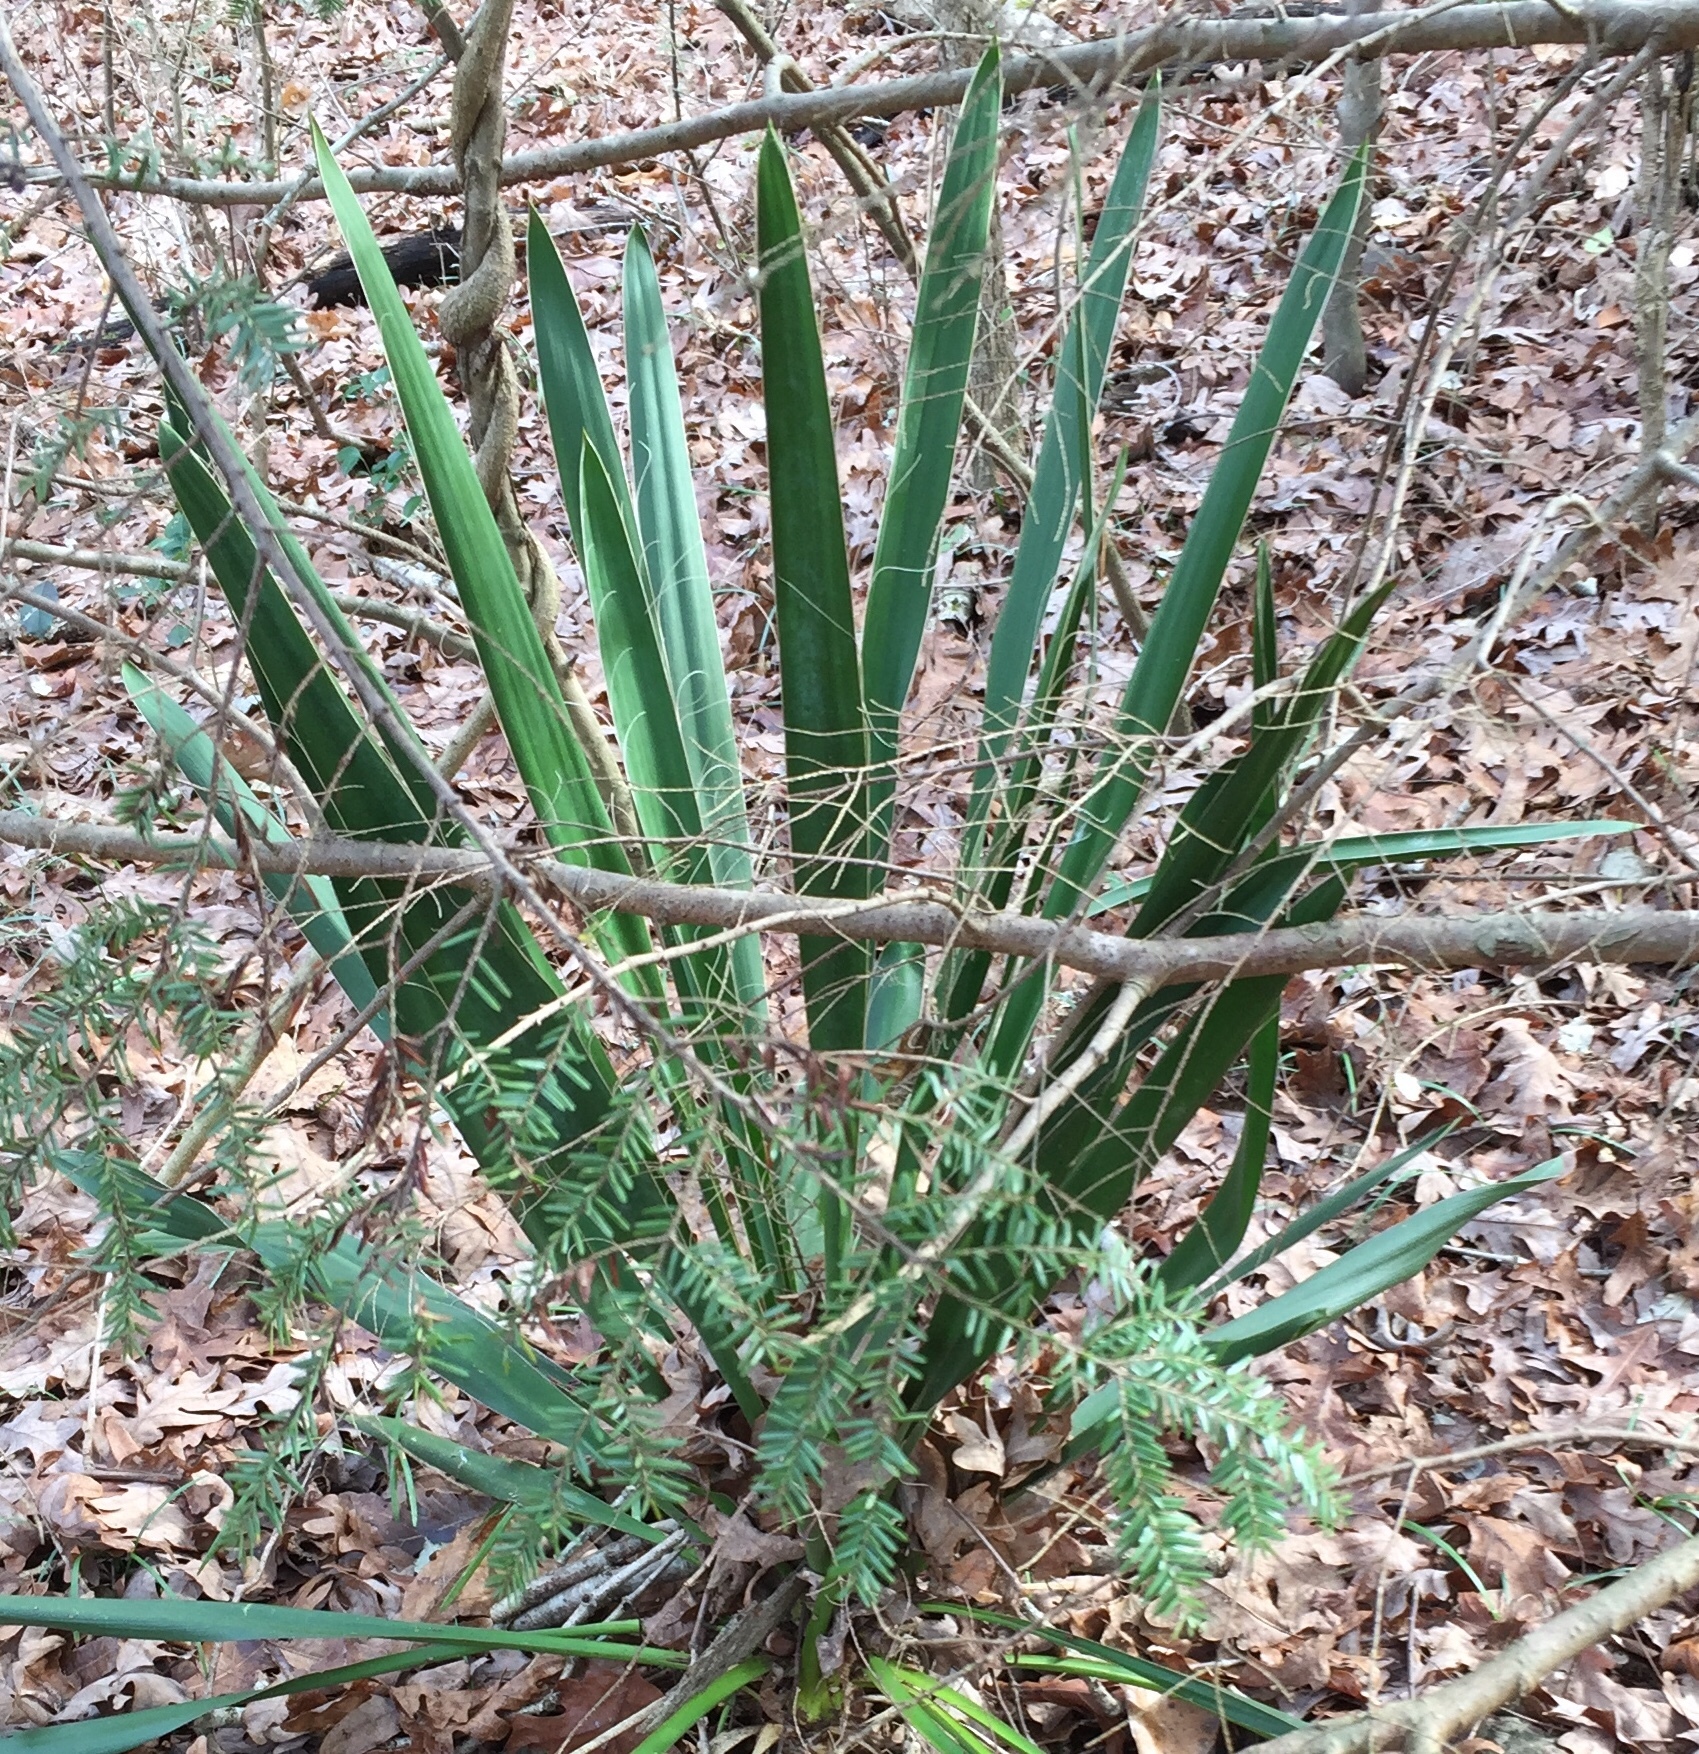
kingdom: Plantae
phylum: Tracheophyta
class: Liliopsida
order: Asparagales
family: Asparagaceae
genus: Yucca
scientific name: Yucca filamentosa
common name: Adam's-needle
